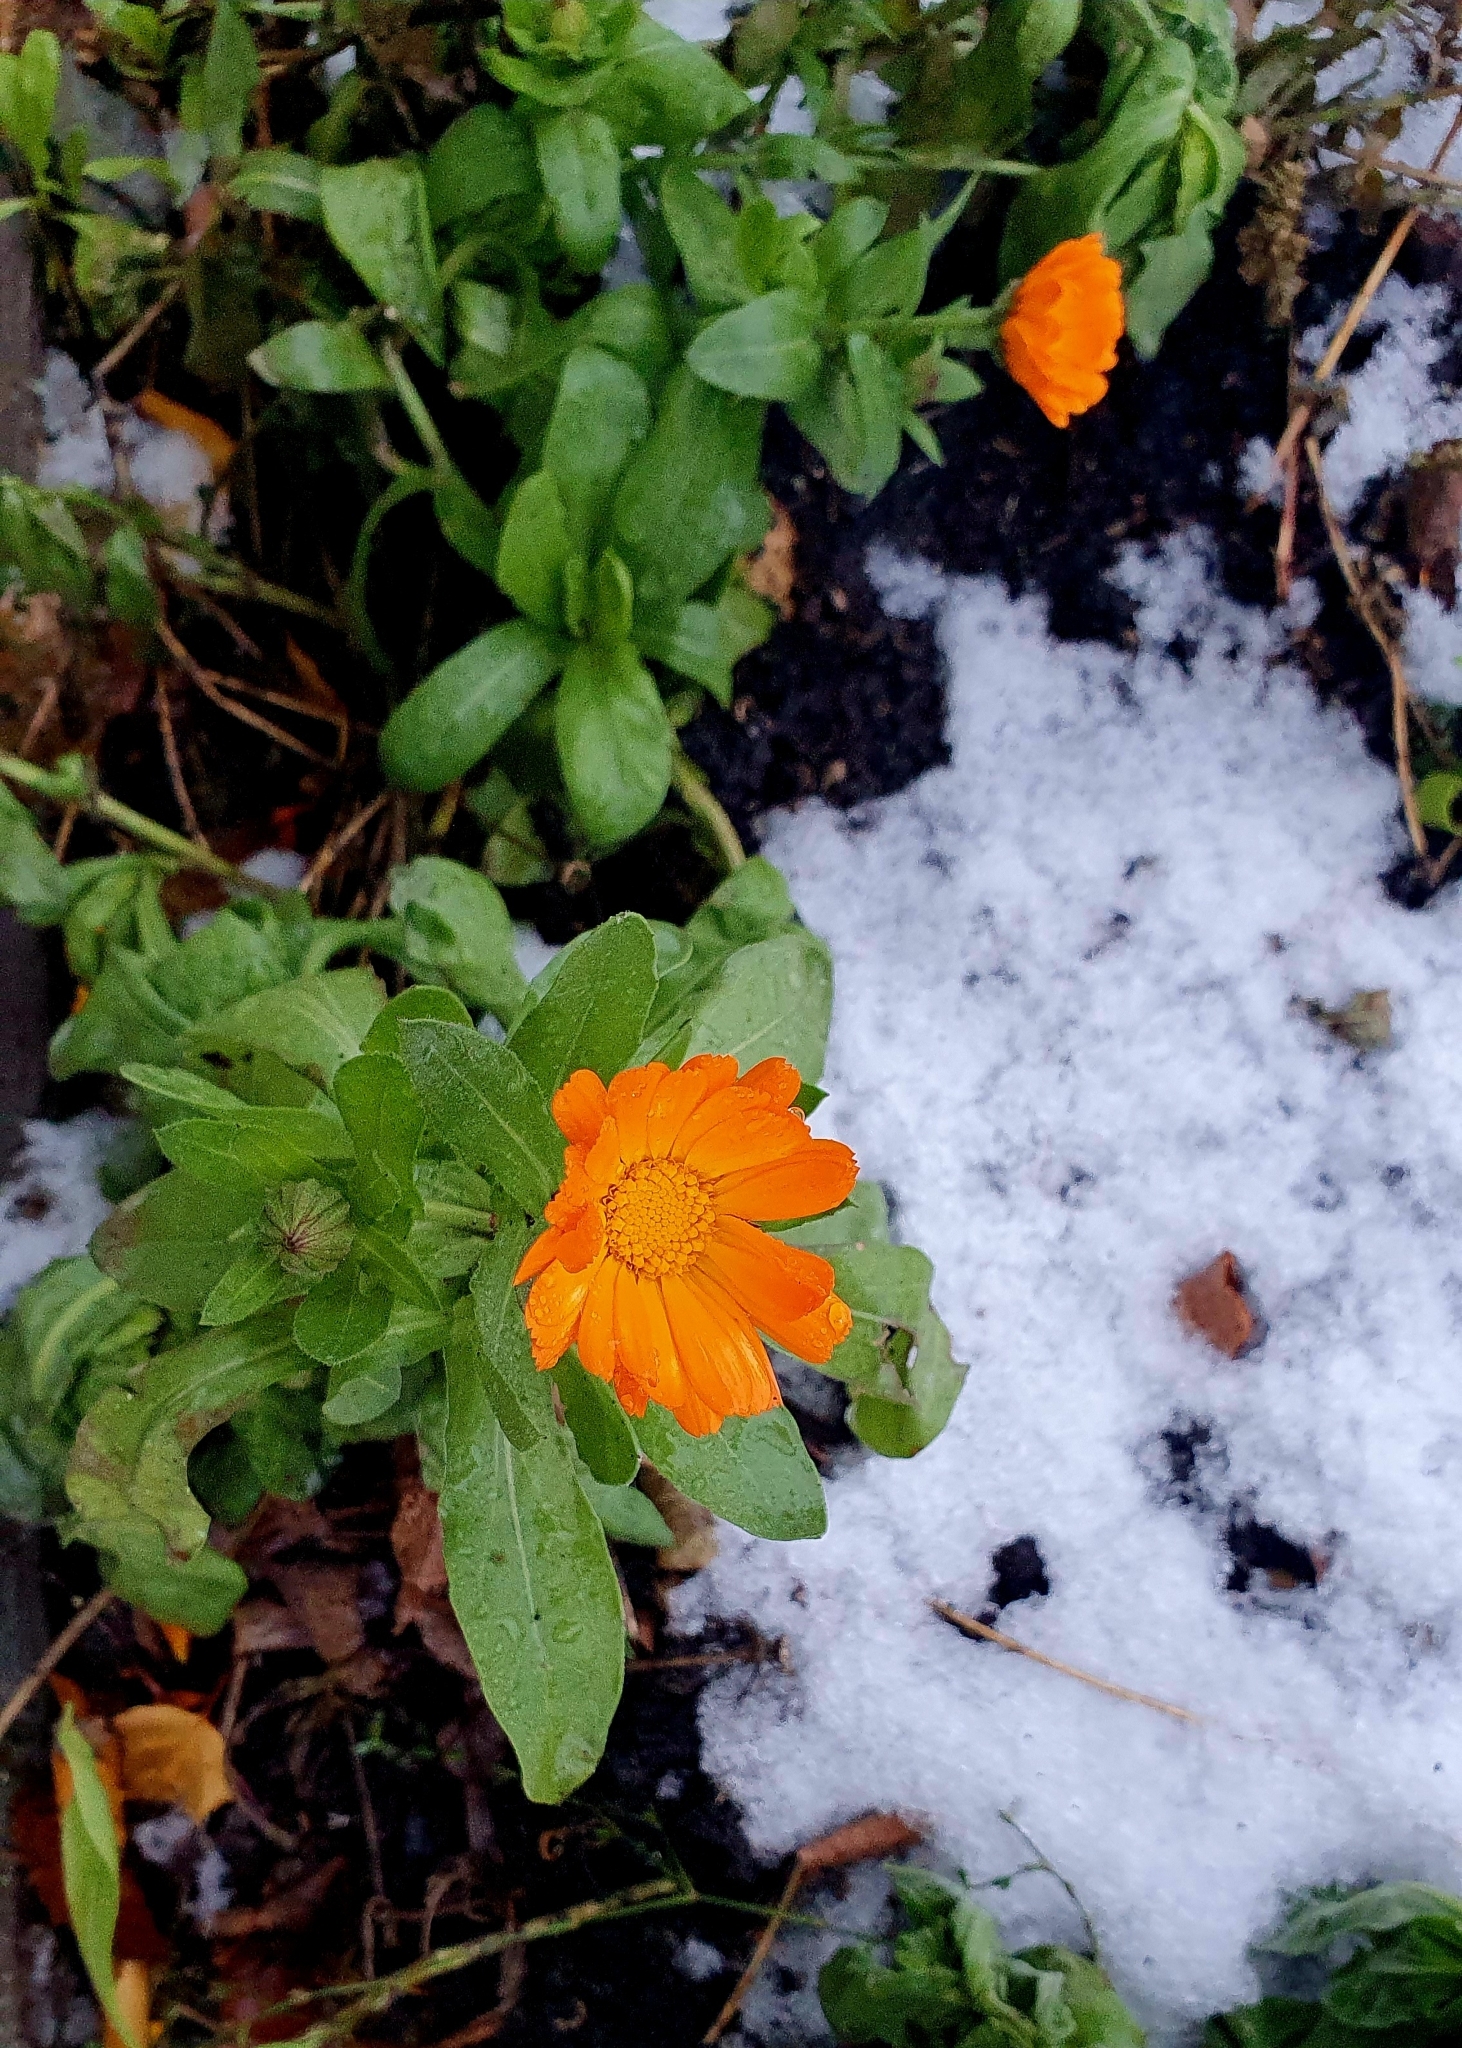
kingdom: Plantae
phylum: Tracheophyta
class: Magnoliopsida
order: Asterales
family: Asteraceae
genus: Calendula
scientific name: Calendula officinalis
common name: Pot marigold
